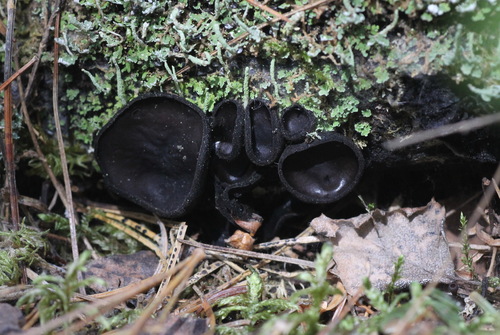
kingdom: Fungi
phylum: Ascomycota
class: Pezizomycetes
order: Pezizales
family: Sarcosomataceae
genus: Pseudoplectania
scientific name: Pseudoplectania nigrella
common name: Ebony cup
